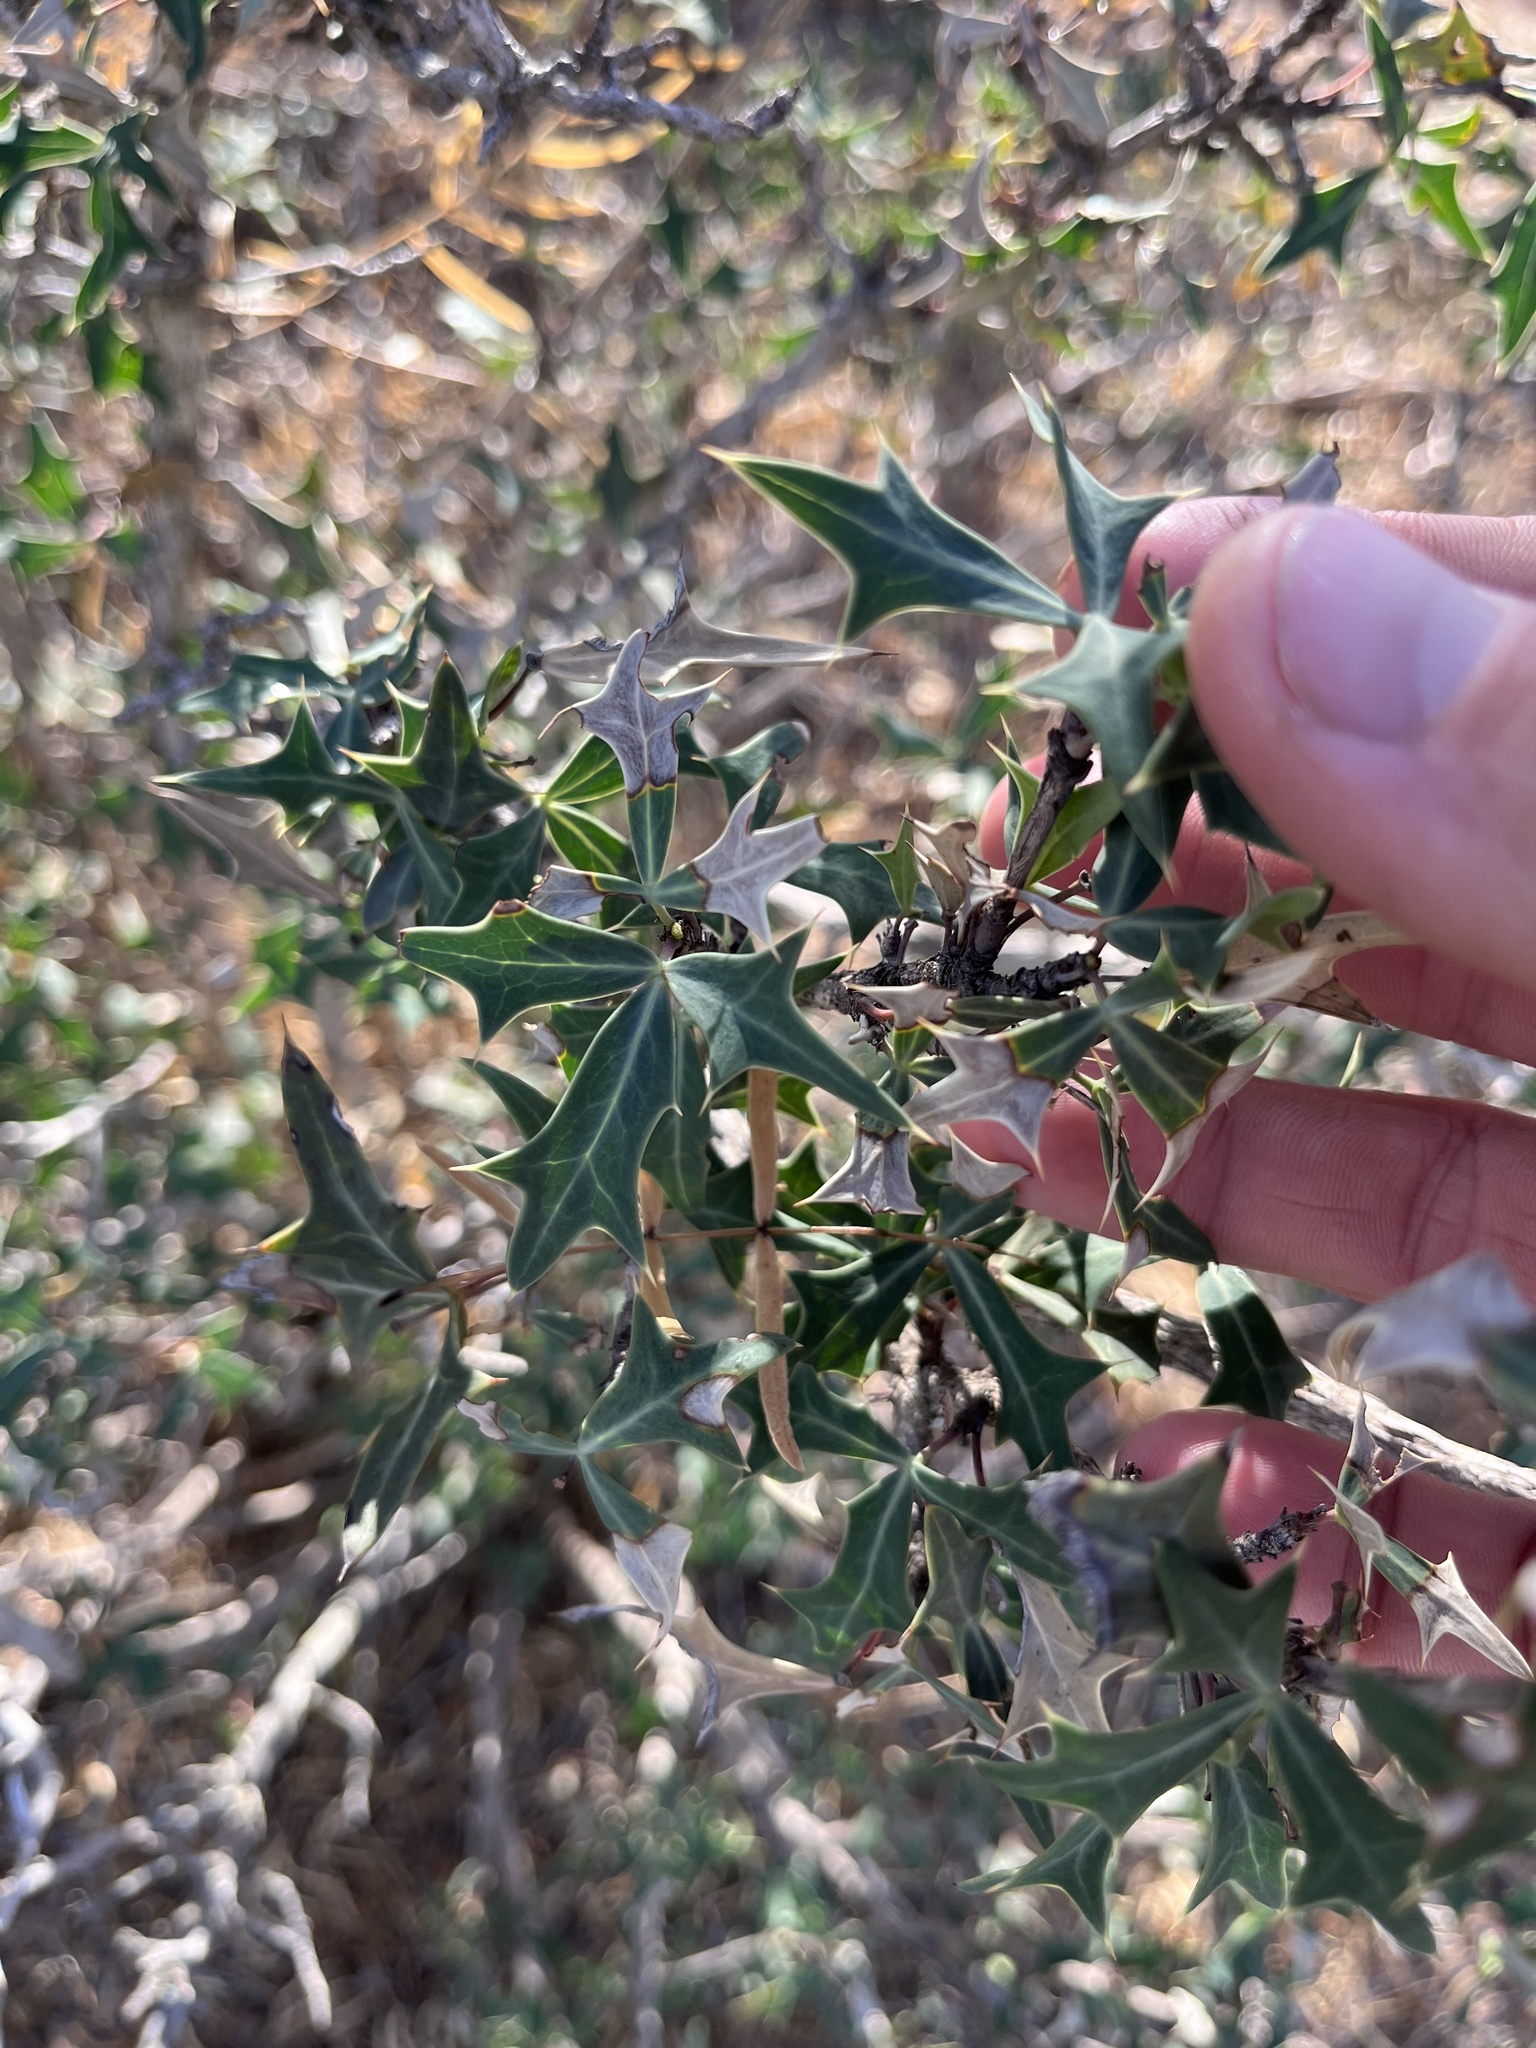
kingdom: Plantae
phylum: Tracheophyta
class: Magnoliopsida
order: Ranunculales
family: Berberidaceae
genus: Alloberberis
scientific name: Alloberberis trifoliolata
